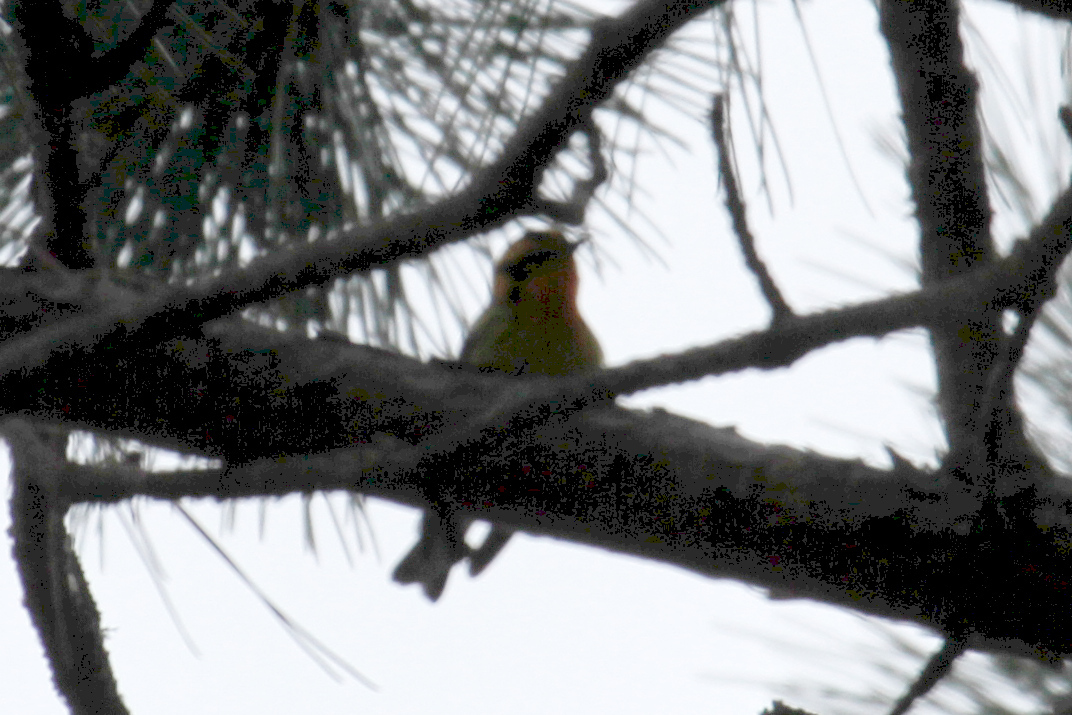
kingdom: Animalia
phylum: Chordata
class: Aves
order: Passeriformes
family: Parulidae
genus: Setophaga
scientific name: Setophaga fusca
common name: Blackburnian warbler
